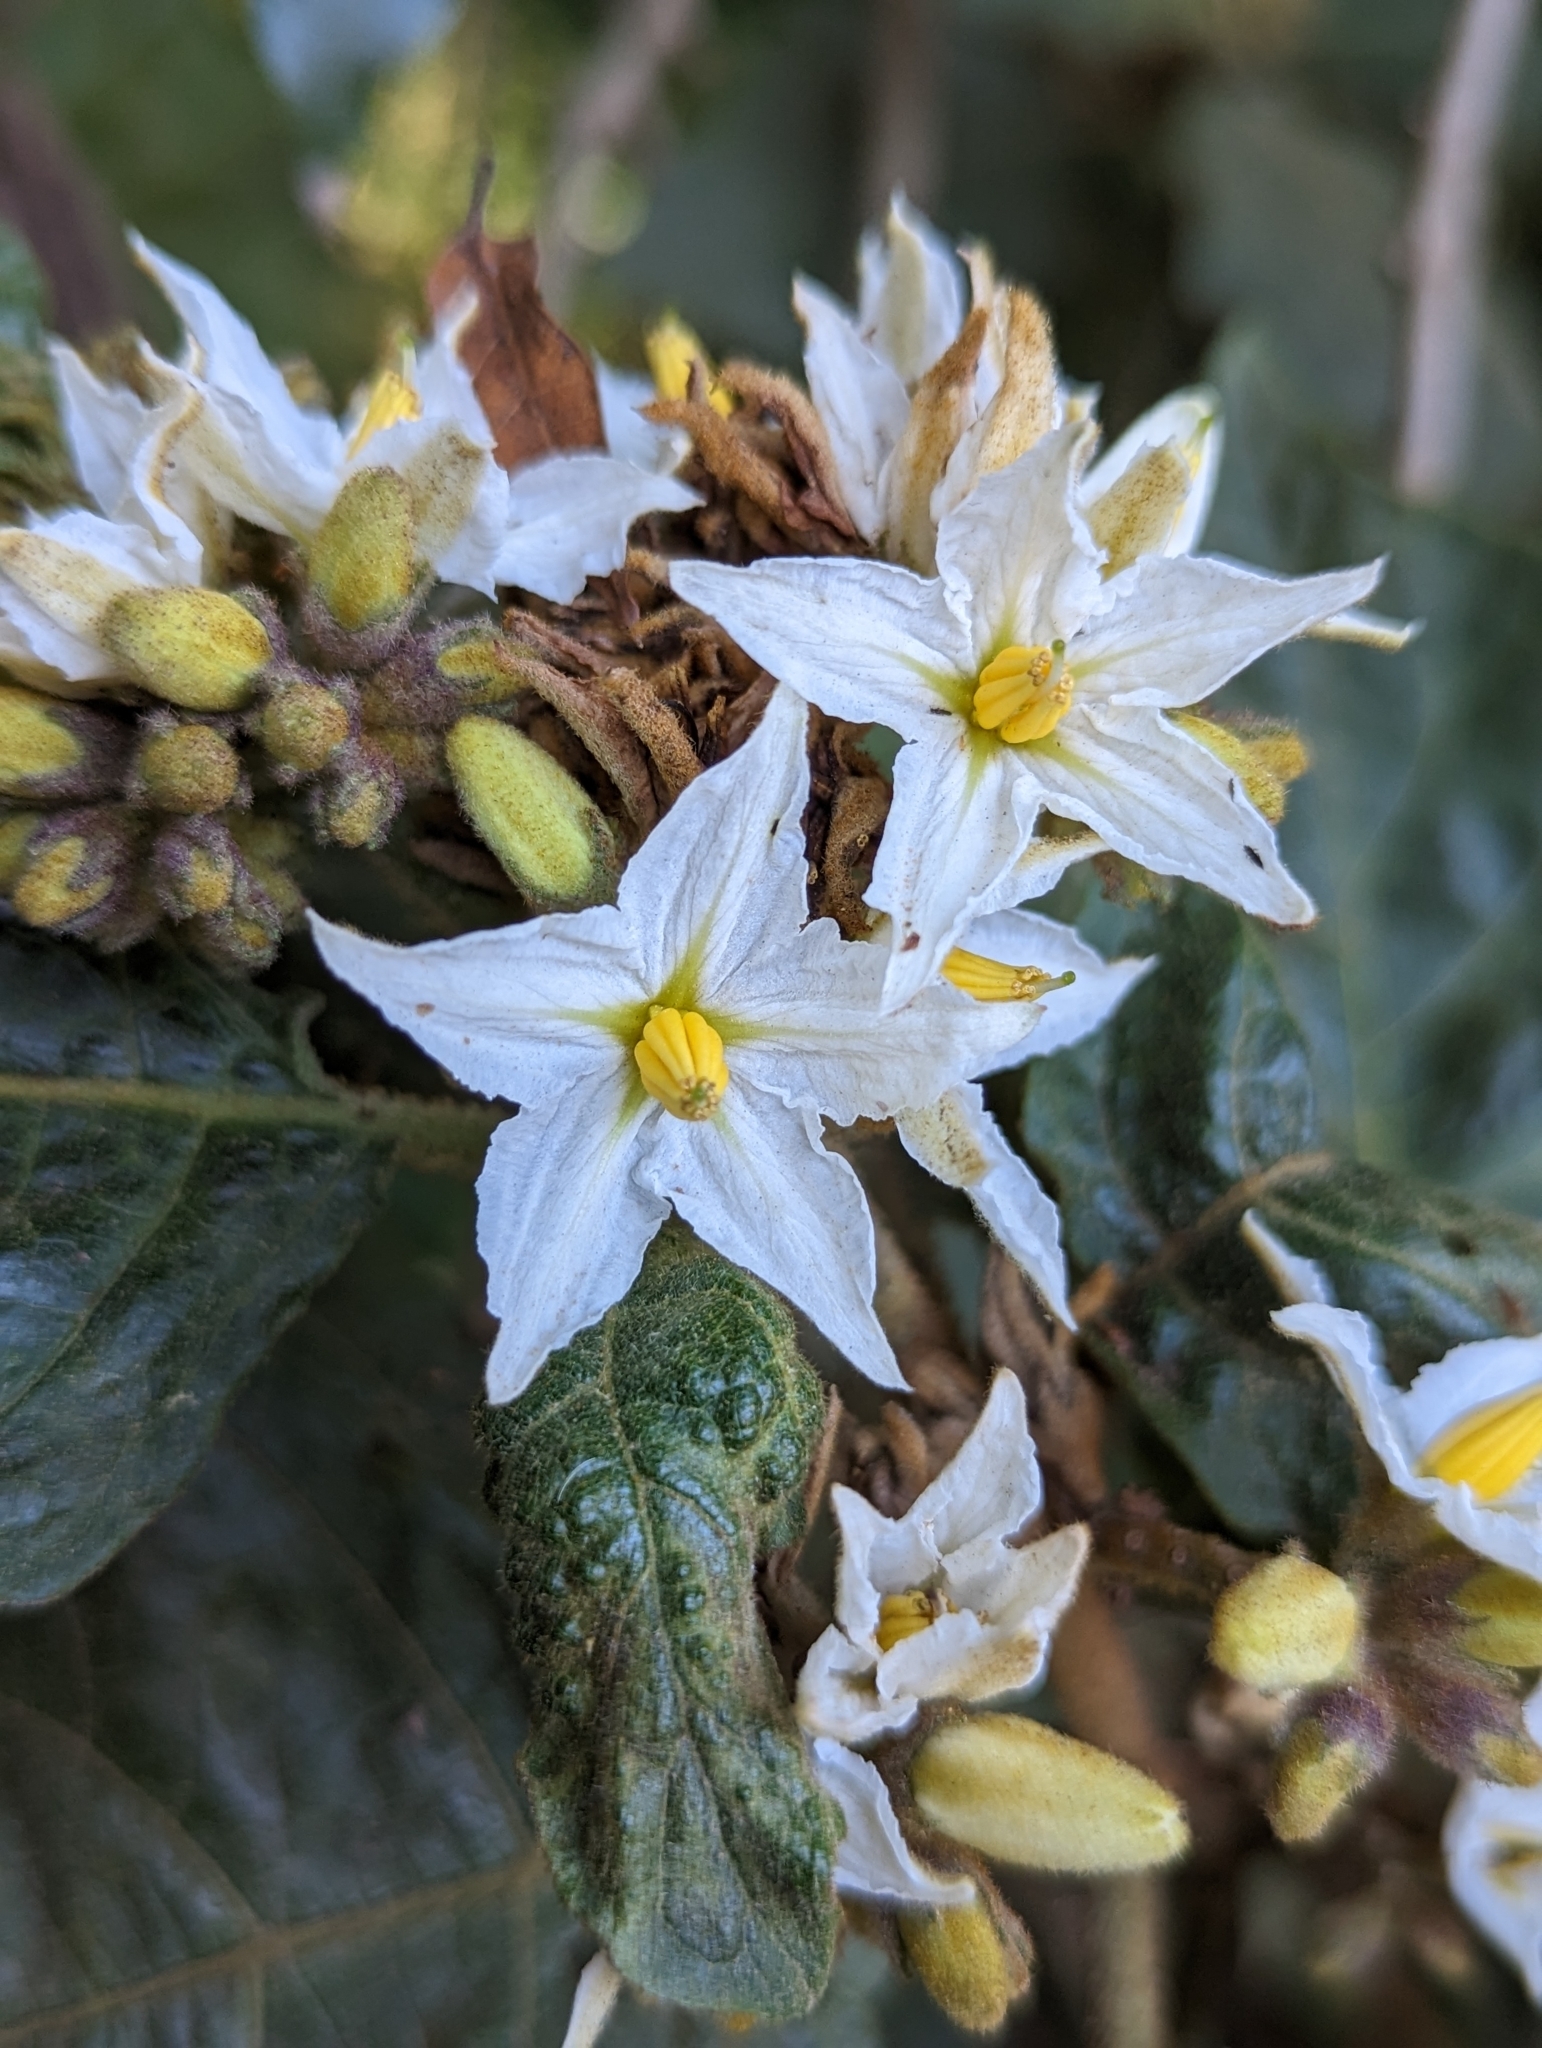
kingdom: Plantae
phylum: Tracheophyta
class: Magnoliopsida
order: Solanales
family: Solanaceae
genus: Solanum
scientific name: Solanum chrysotrichum
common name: Nightshade
